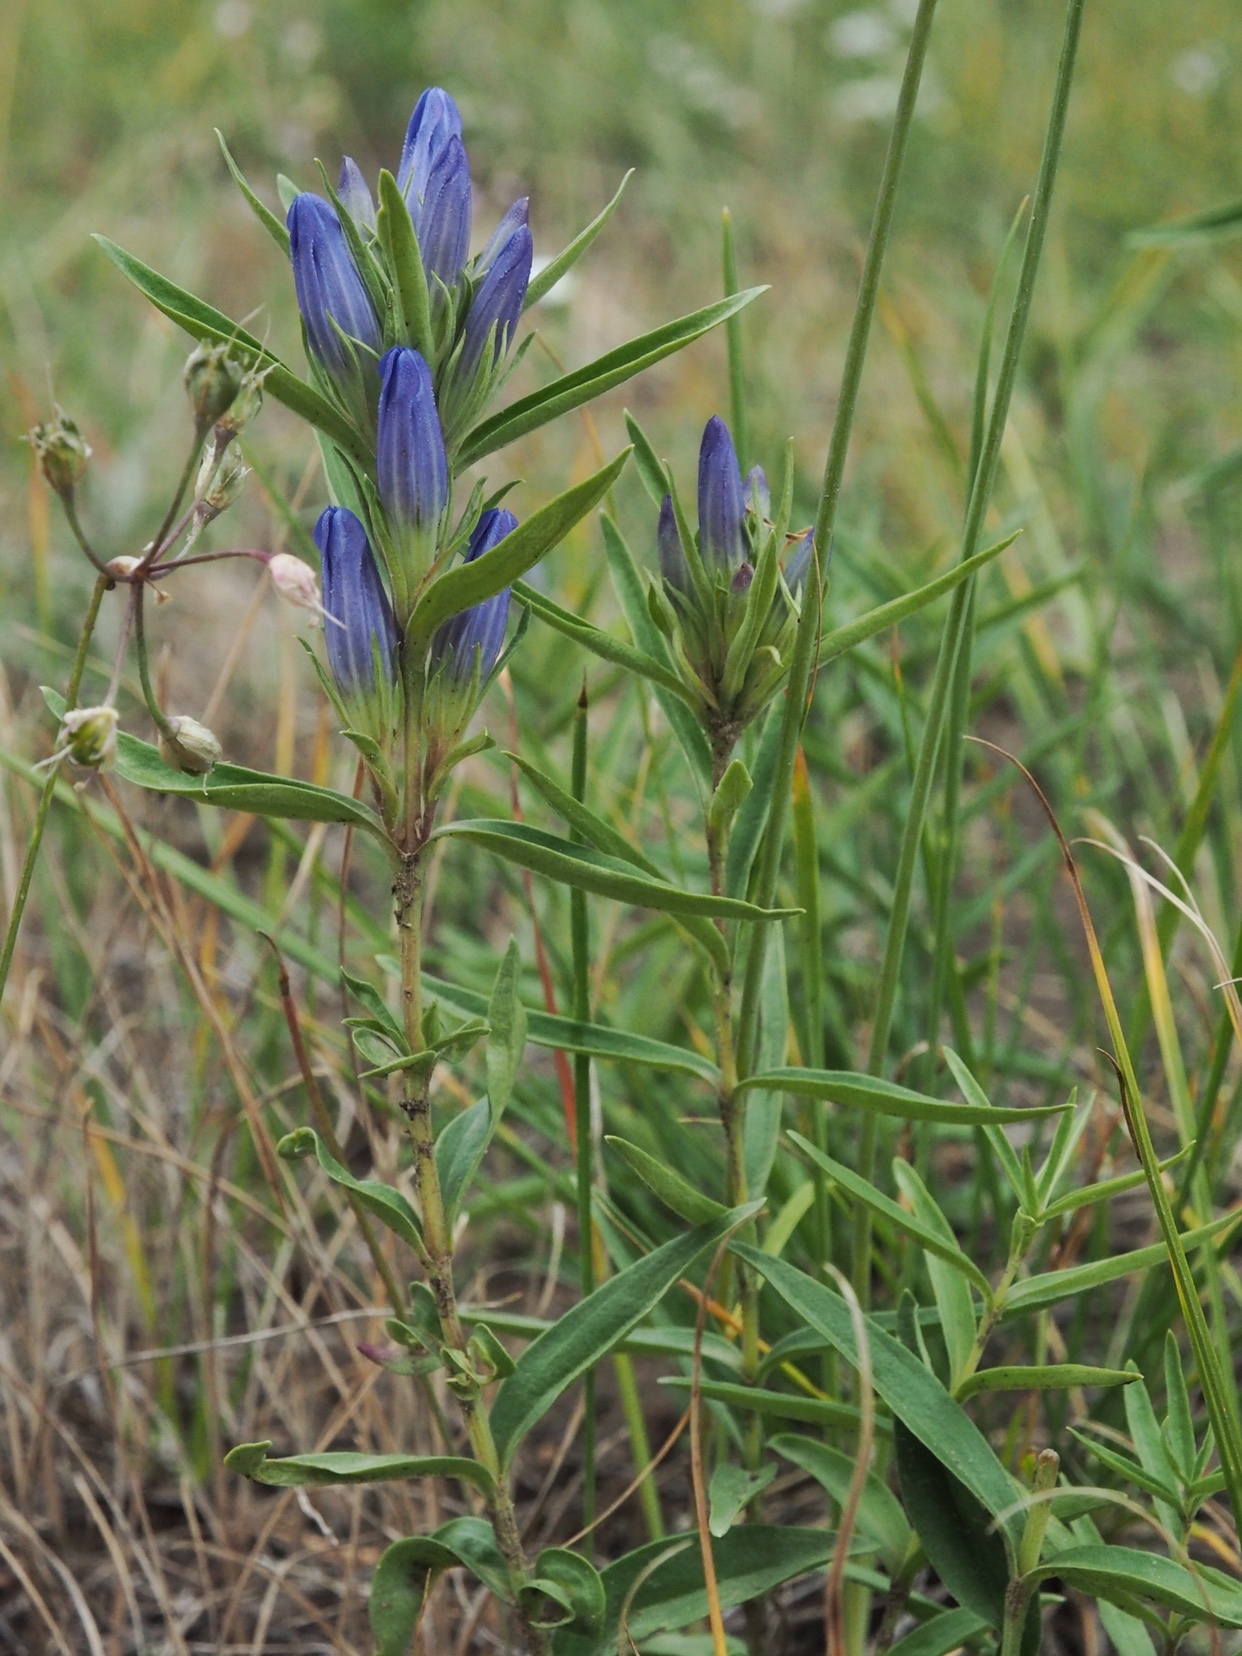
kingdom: Plantae
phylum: Tracheophyta
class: Magnoliopsida
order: Gentianales
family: Gentianaceae
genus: Gentiana
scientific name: Gentiana affinis
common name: Rocky mountain gentian
